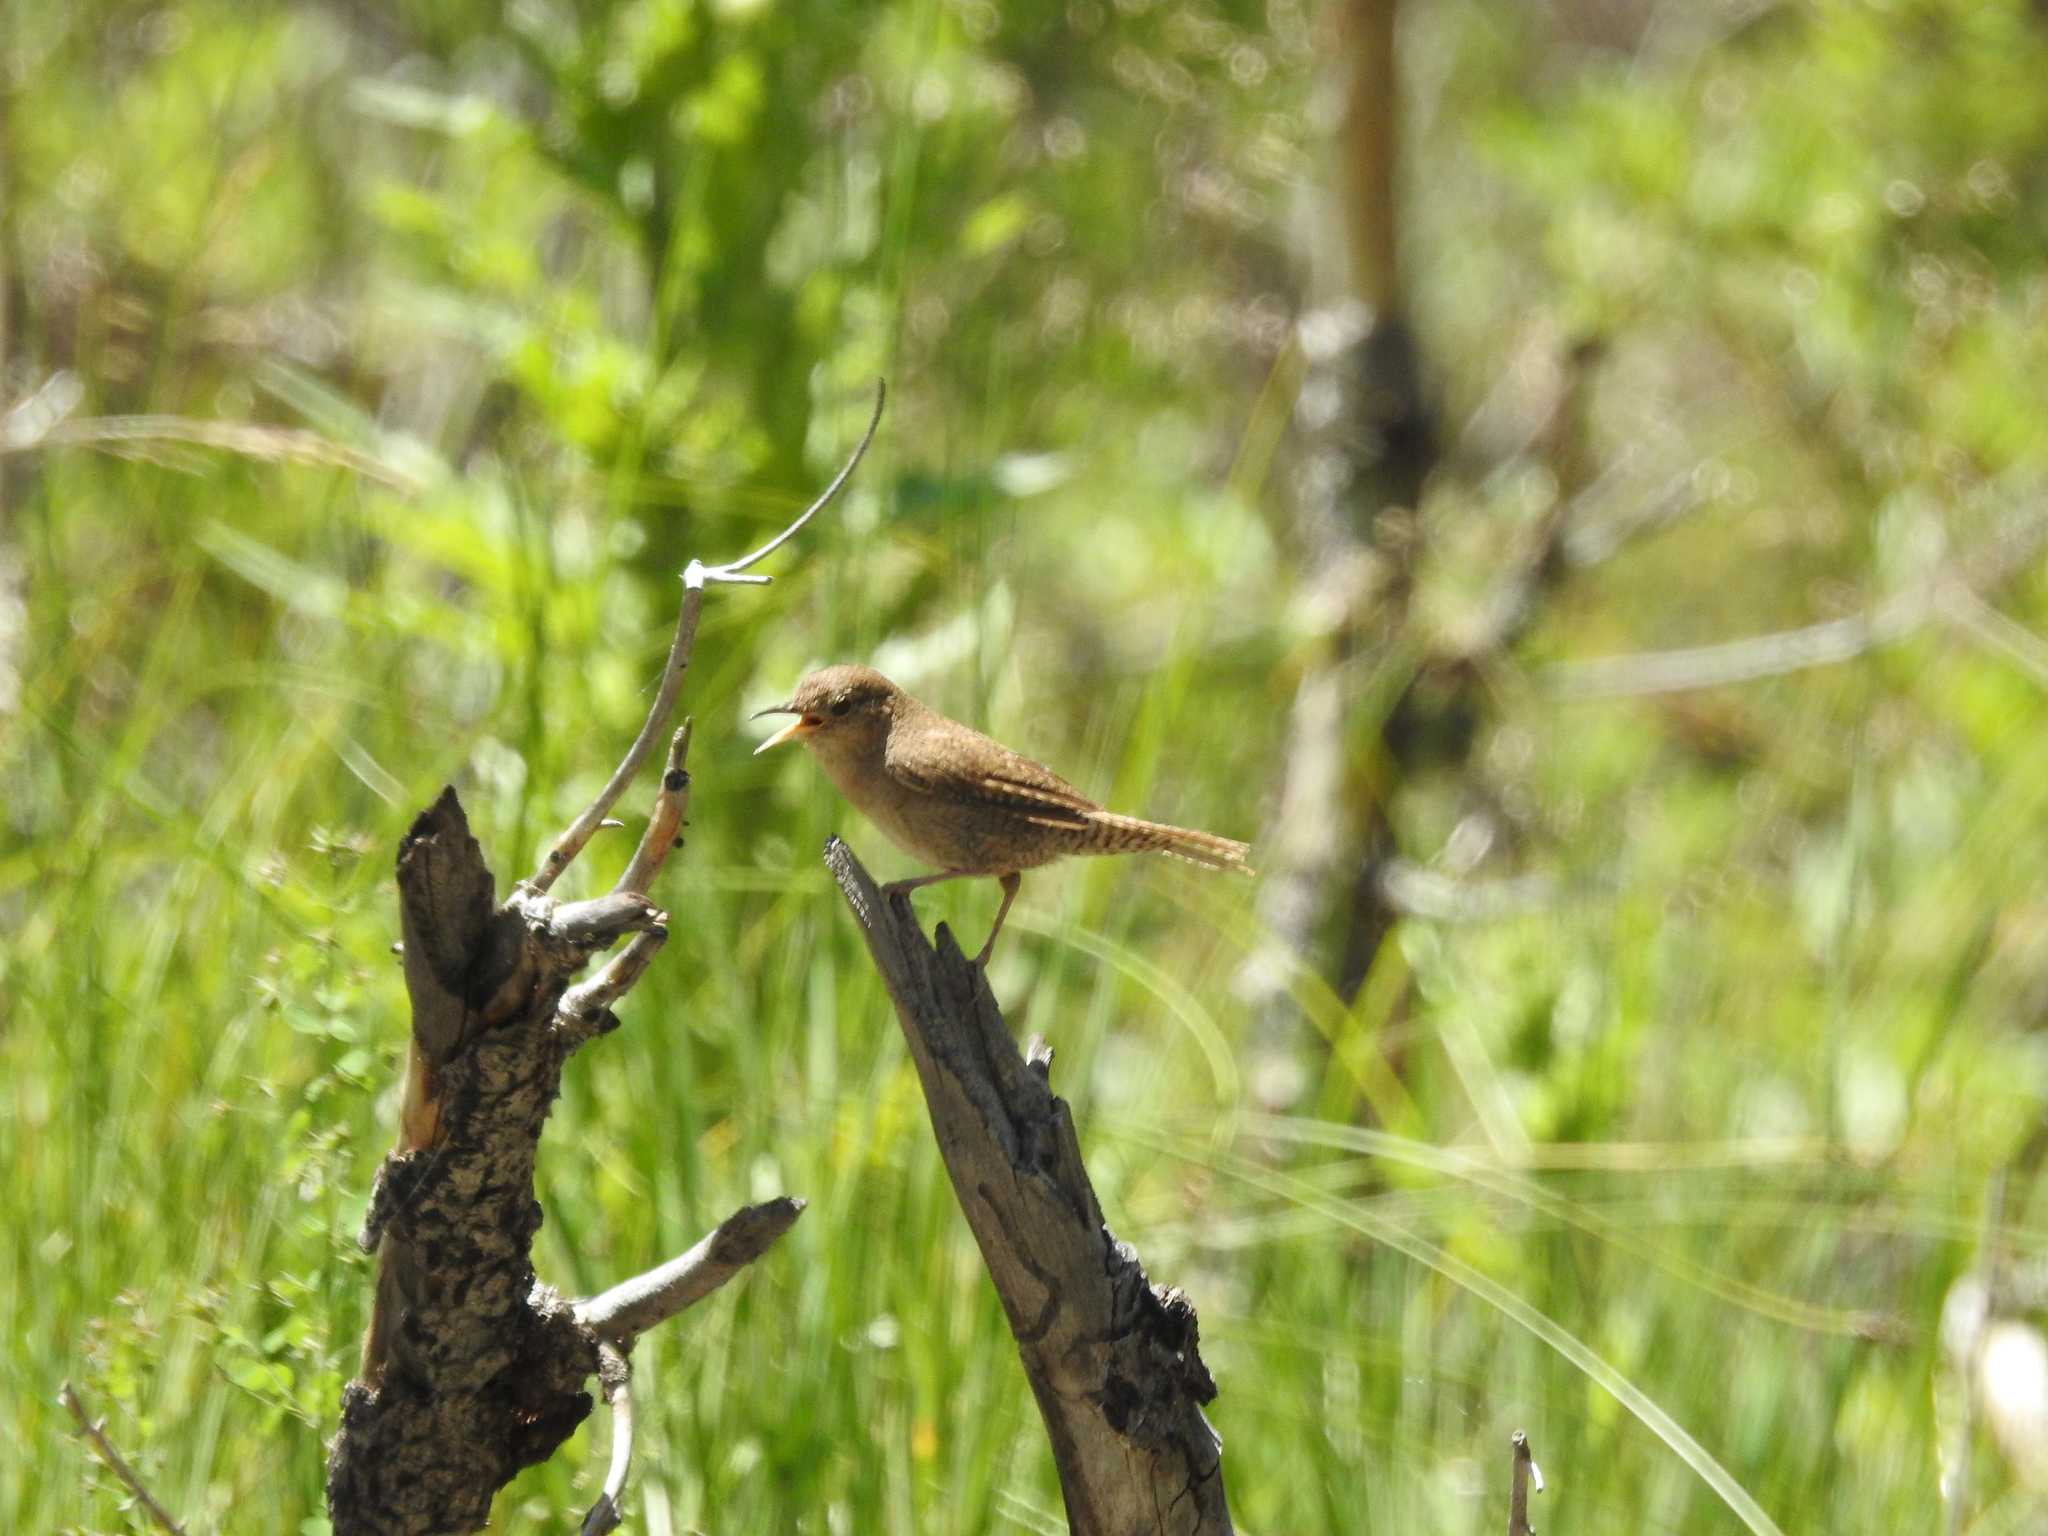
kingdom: Animalia
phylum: Chordata
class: Aves
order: Passeriformes
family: Troglodytidae
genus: Troglodytes
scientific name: Troglodytes aedon
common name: House wren
